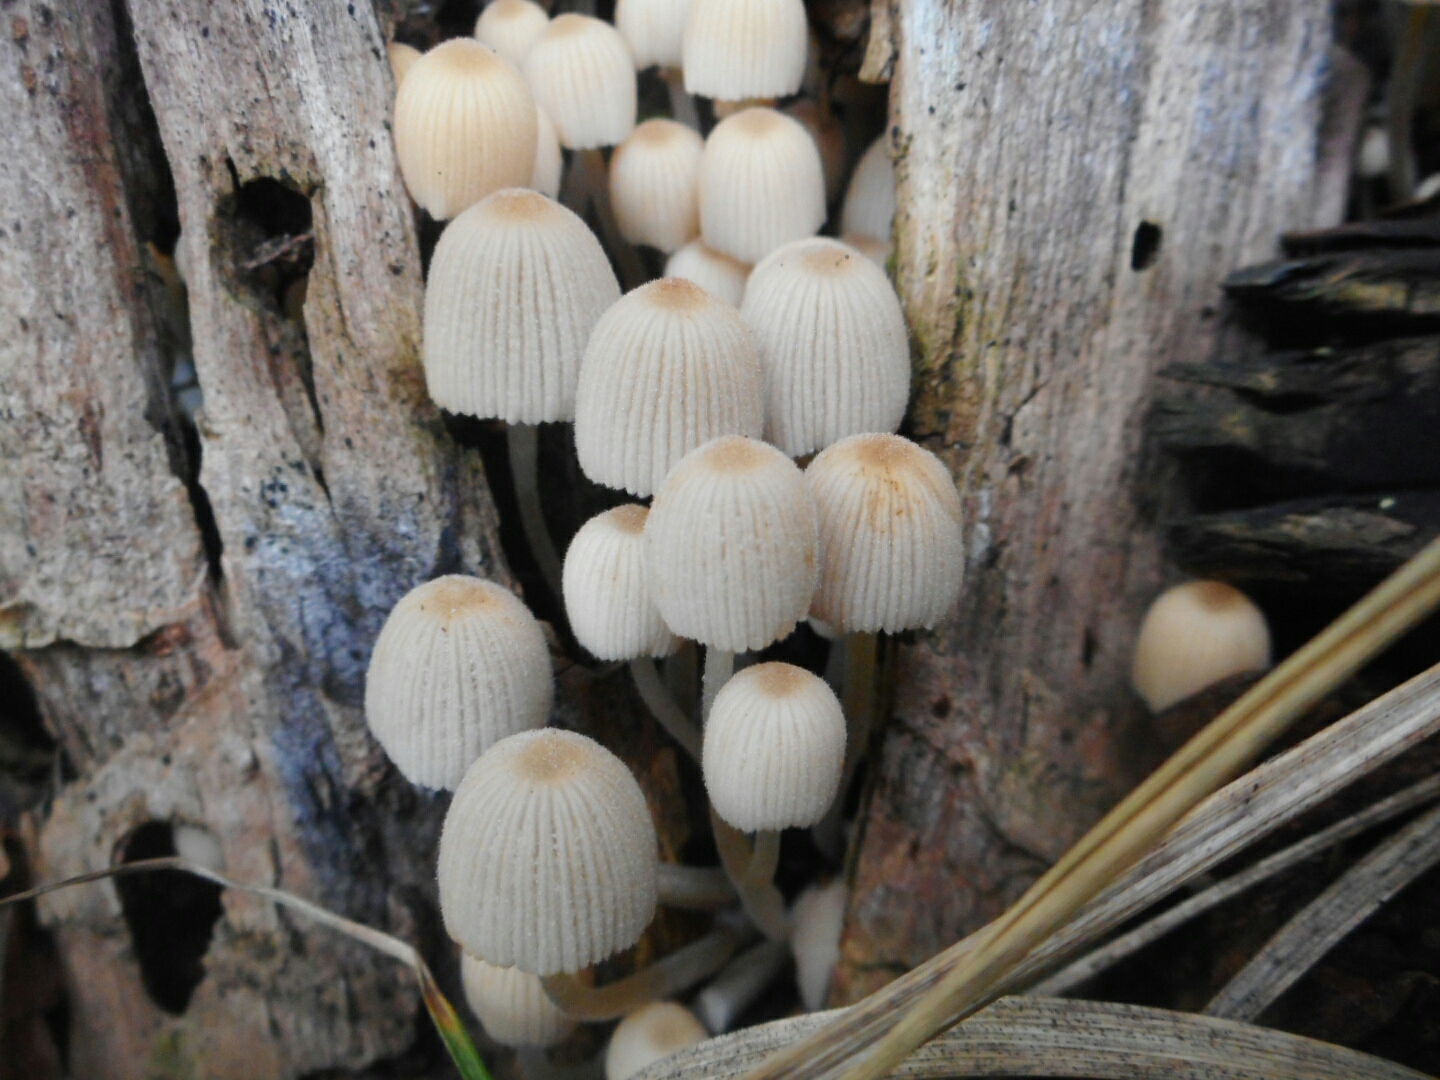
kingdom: Fungi
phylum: Basidiomycota
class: Agaricomycetes
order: Agaricales
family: Psathyrellaceae
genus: Coprinellus
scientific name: Coprinellus disseminatus
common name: Fairies' bonnets
